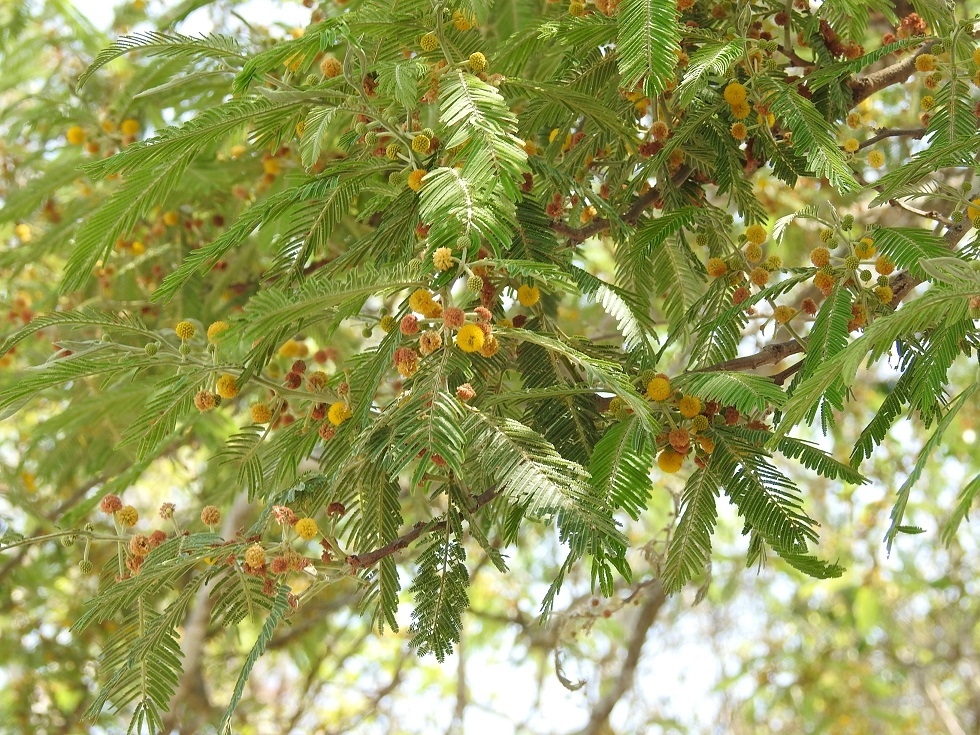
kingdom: Plantae
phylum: Tracheophyta
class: Magnoliopsida
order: Fabales
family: Fabaceae
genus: Vachellia
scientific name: Vachellia pennatula
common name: Fern-leaf acacia
